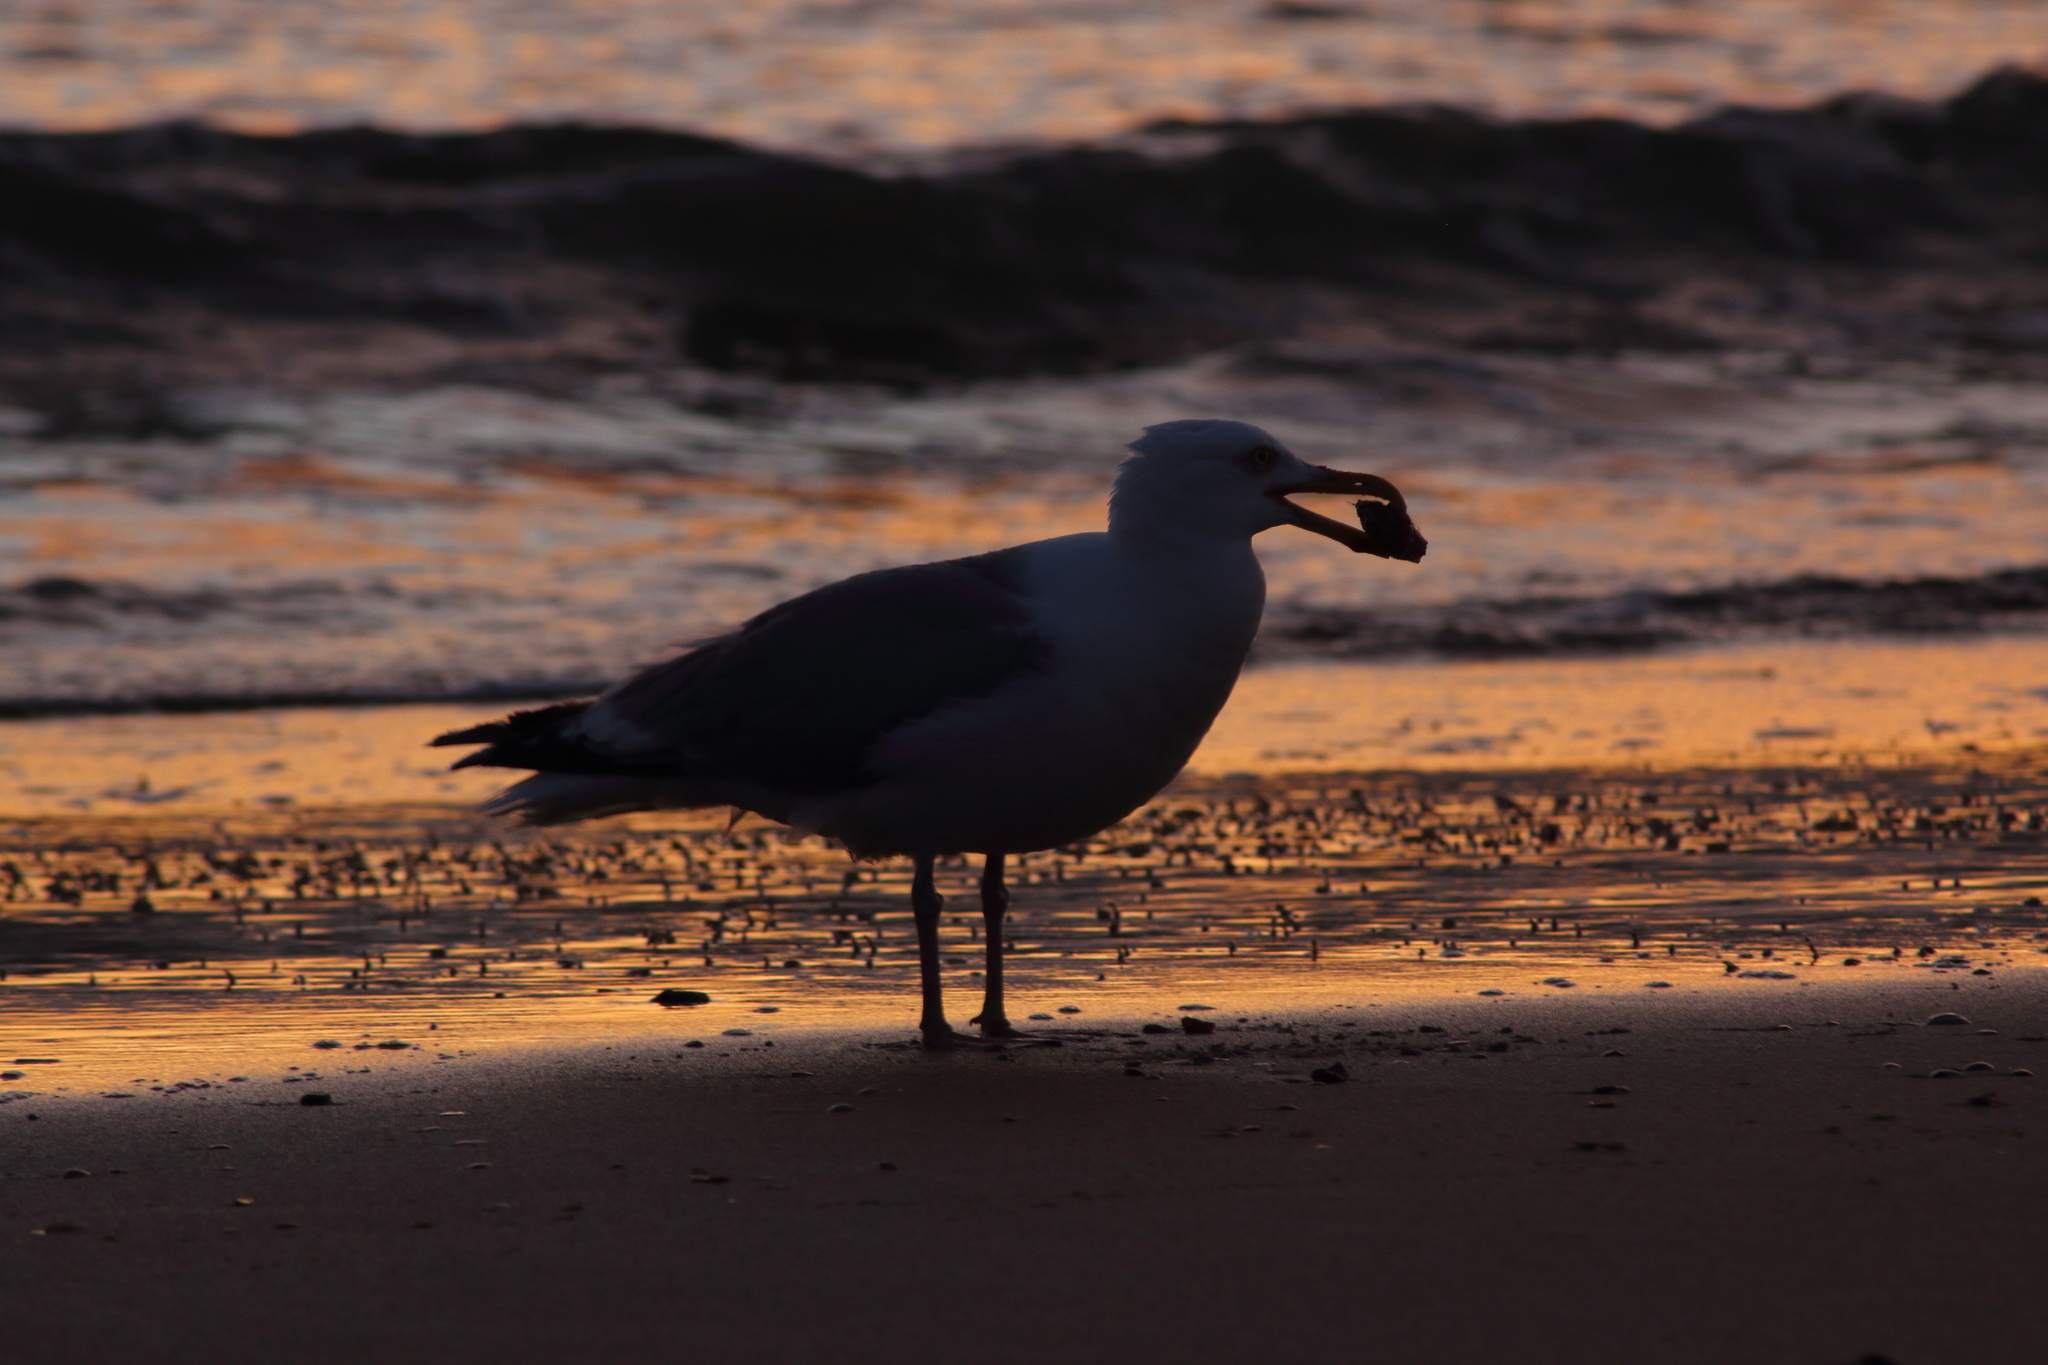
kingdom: Animalia
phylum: Chordata
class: Aves
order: Charadriiformes
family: Laridae
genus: Larus
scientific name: Larus argentatus
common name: Herring gull
